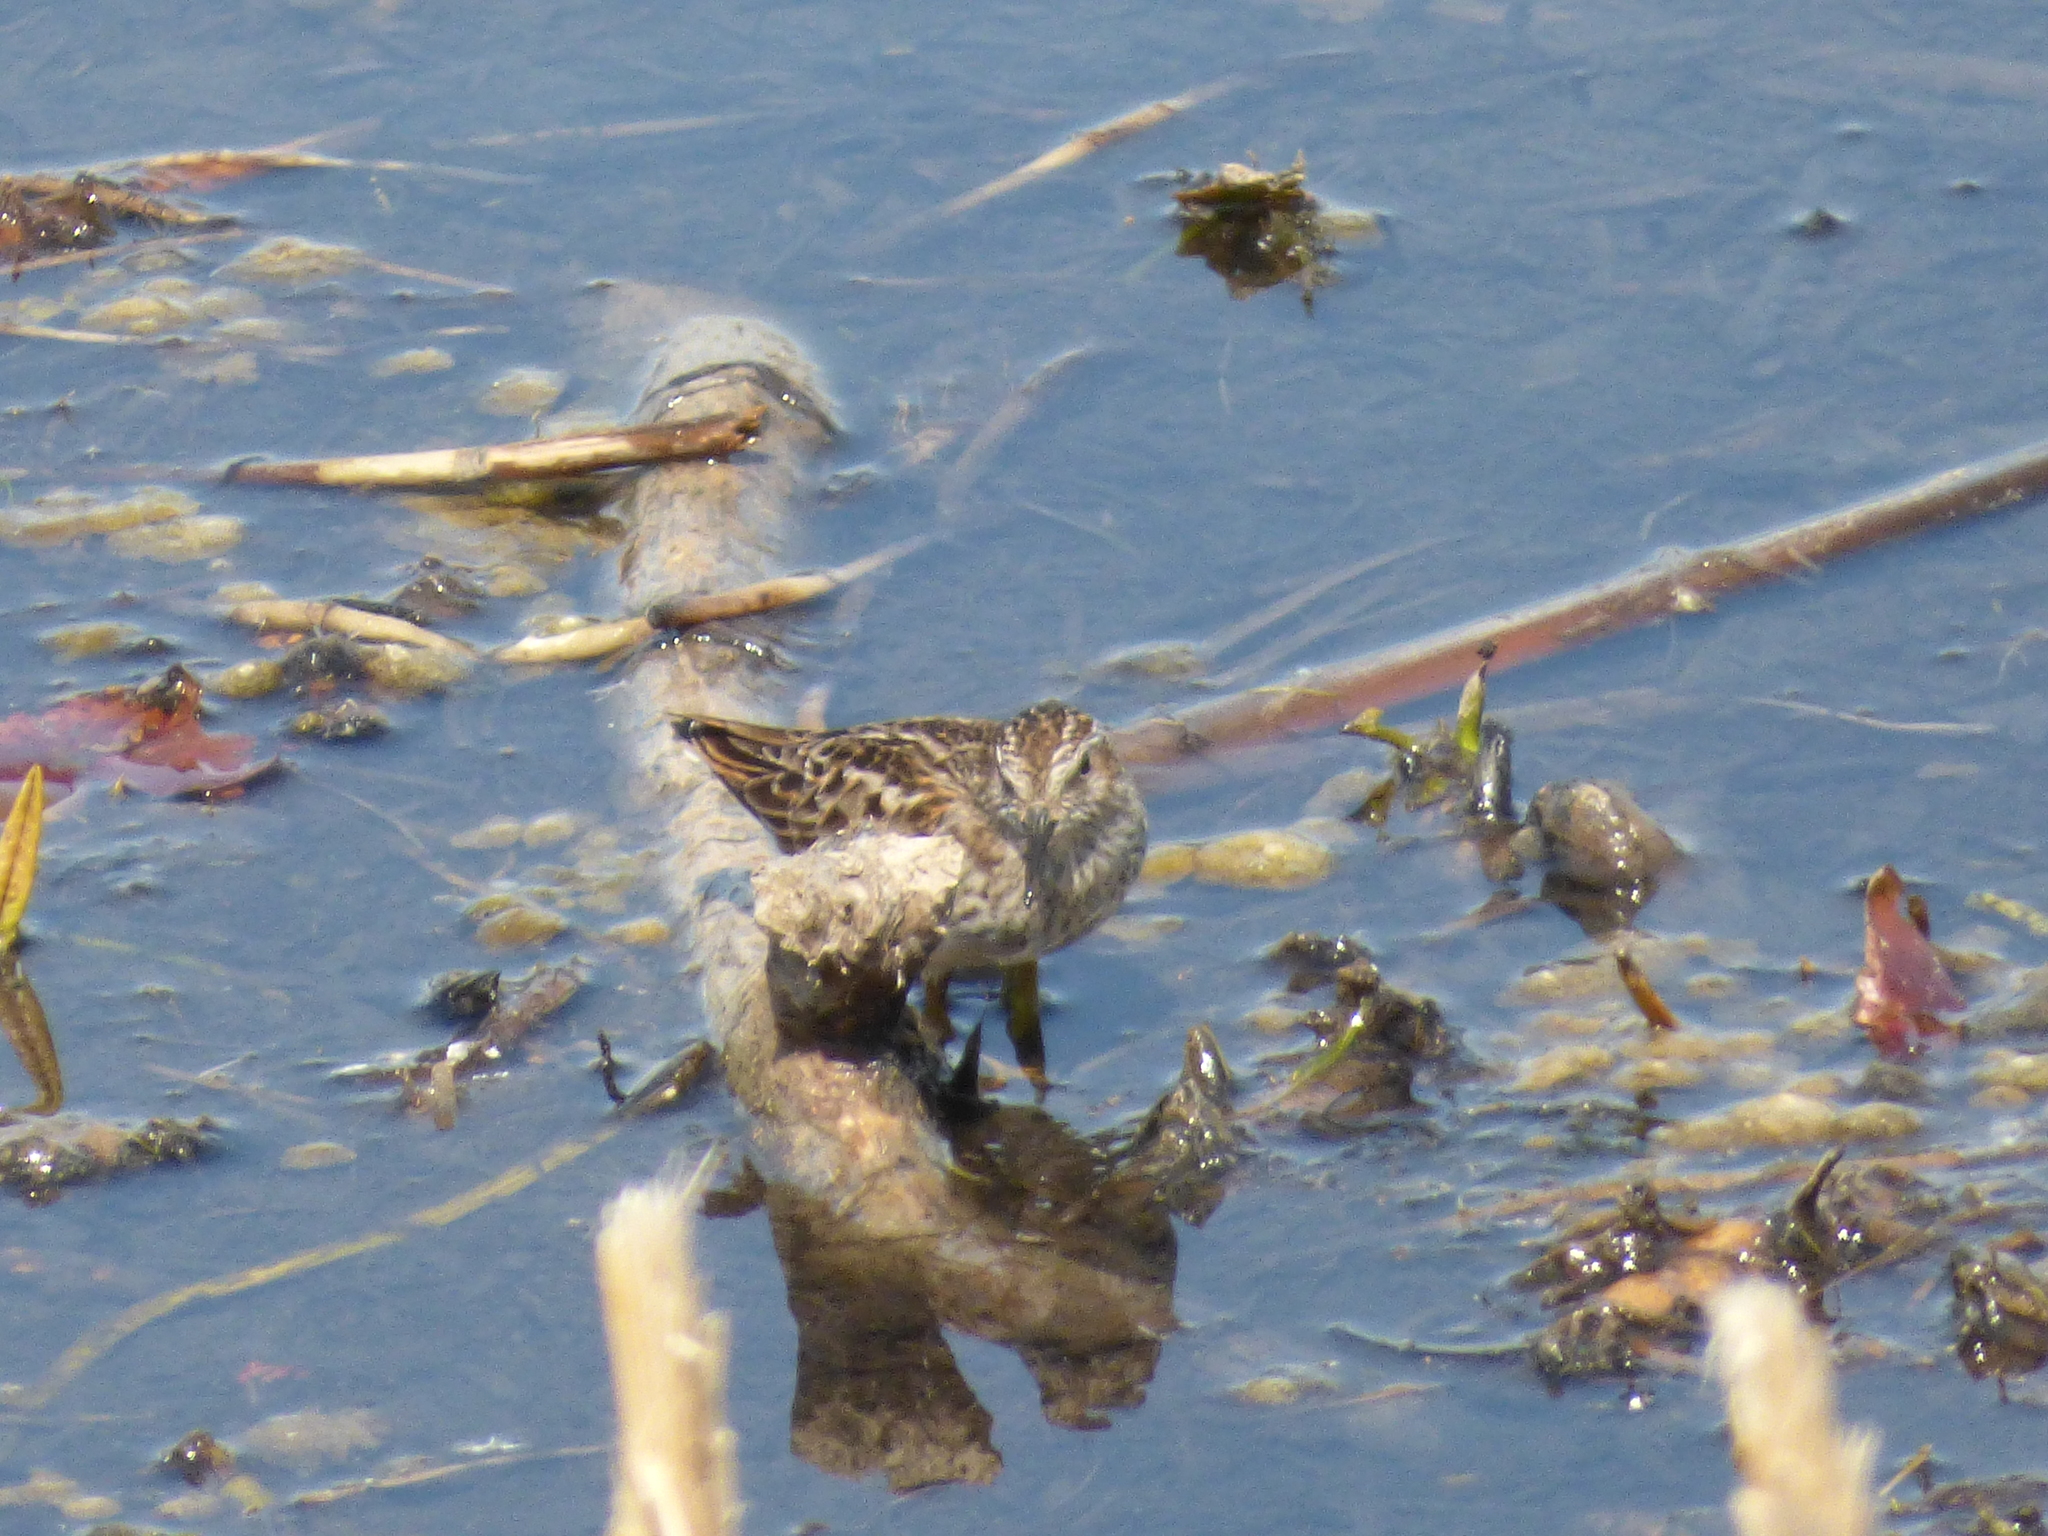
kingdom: Animalia
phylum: Chordata
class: Aves
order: Charadriiformes
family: Scolopacidae
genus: Calidris
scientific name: Calidris minutilla
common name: Least sandpiper
